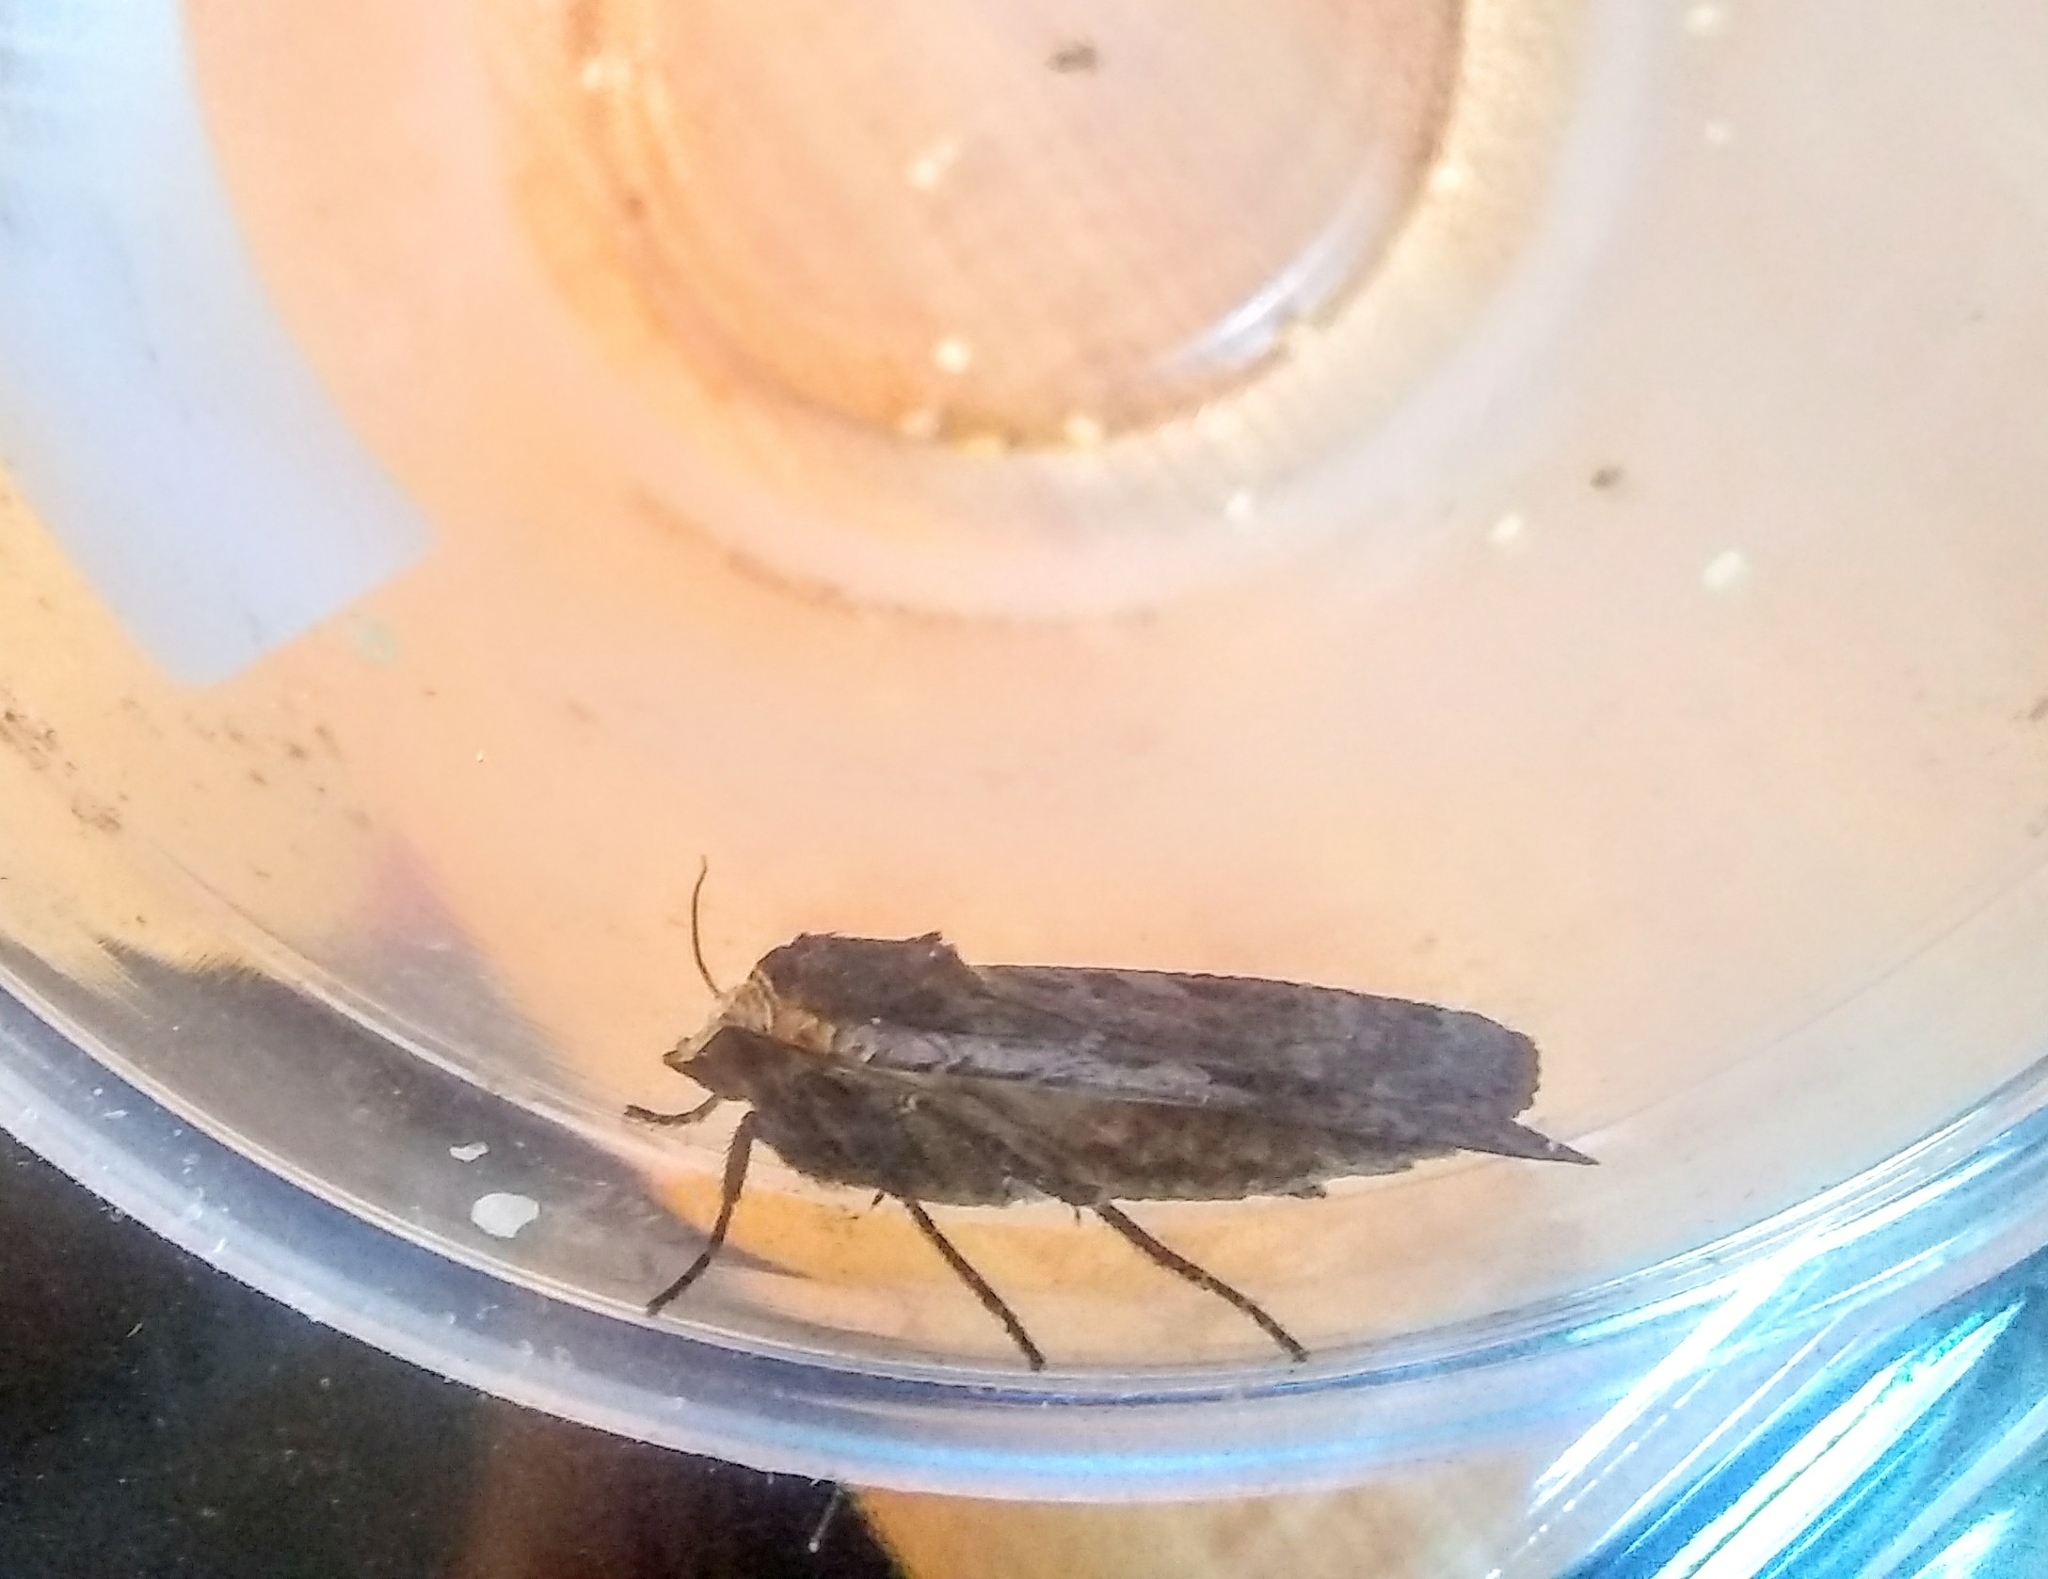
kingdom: Animalia
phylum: Arthropoda
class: Insecta
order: Lepidoptera
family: Noctuidae
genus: Noctua
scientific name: Noctua pronuba
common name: Large yellow underwing
